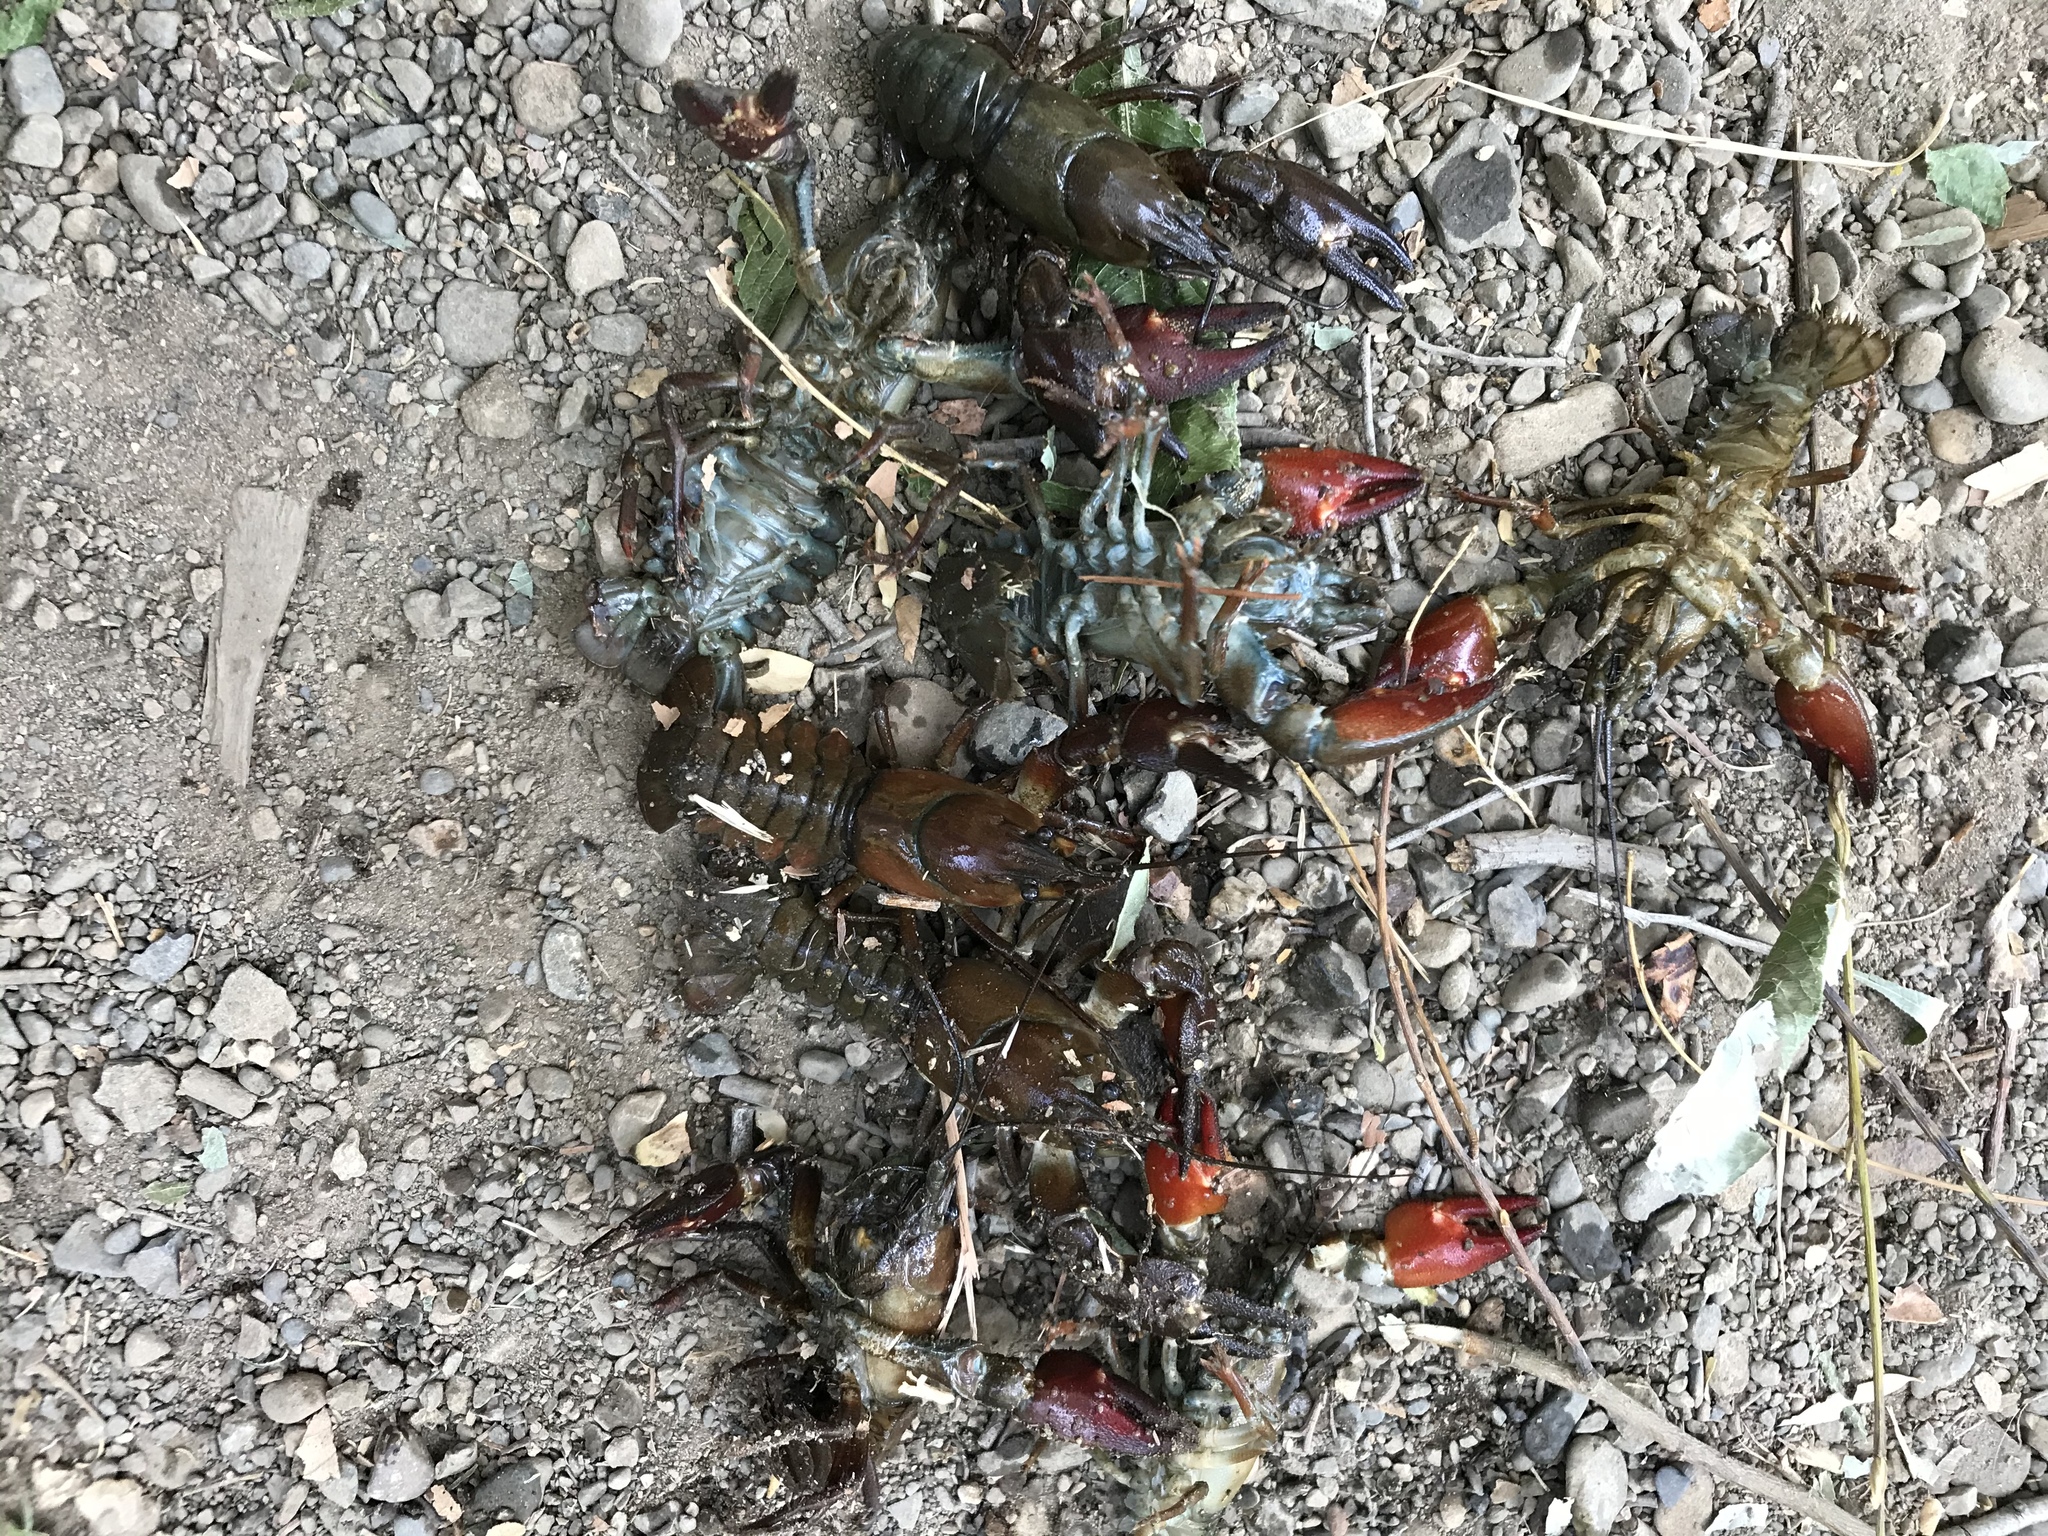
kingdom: Animalia
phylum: Arthropoda
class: Malacostraca
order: Decapoda
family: Astacidae
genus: Pacifastacus
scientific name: Pacifastacus leniusculus
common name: Signal crayfish
